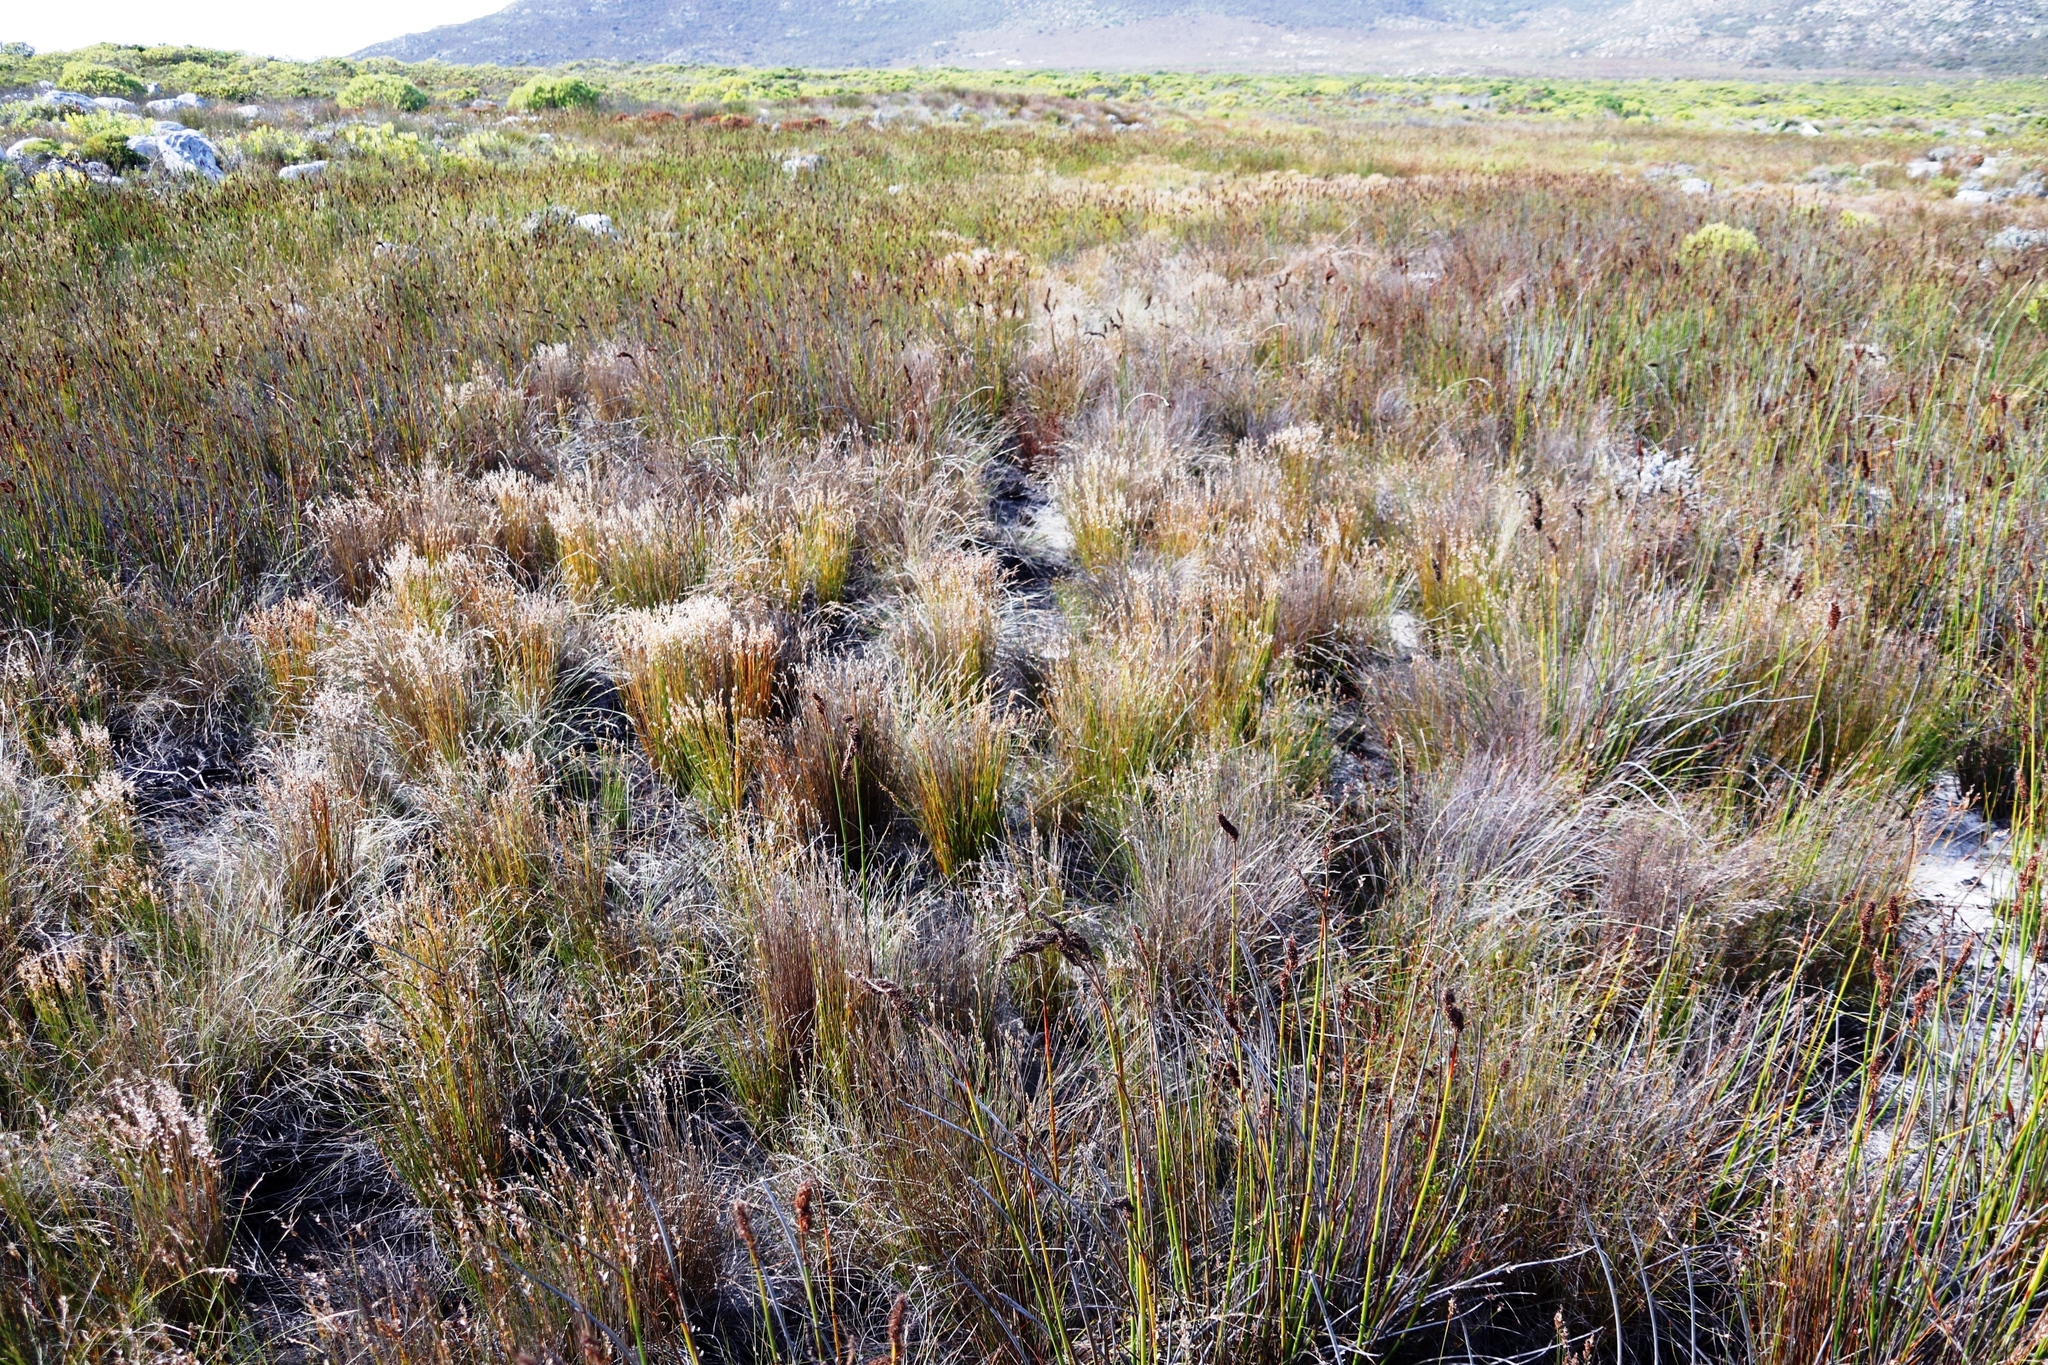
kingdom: Plantae
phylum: Tracheophyta
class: Liliopsida
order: Poales
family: Restionaceae
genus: Elegia
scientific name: Elegia filacea
